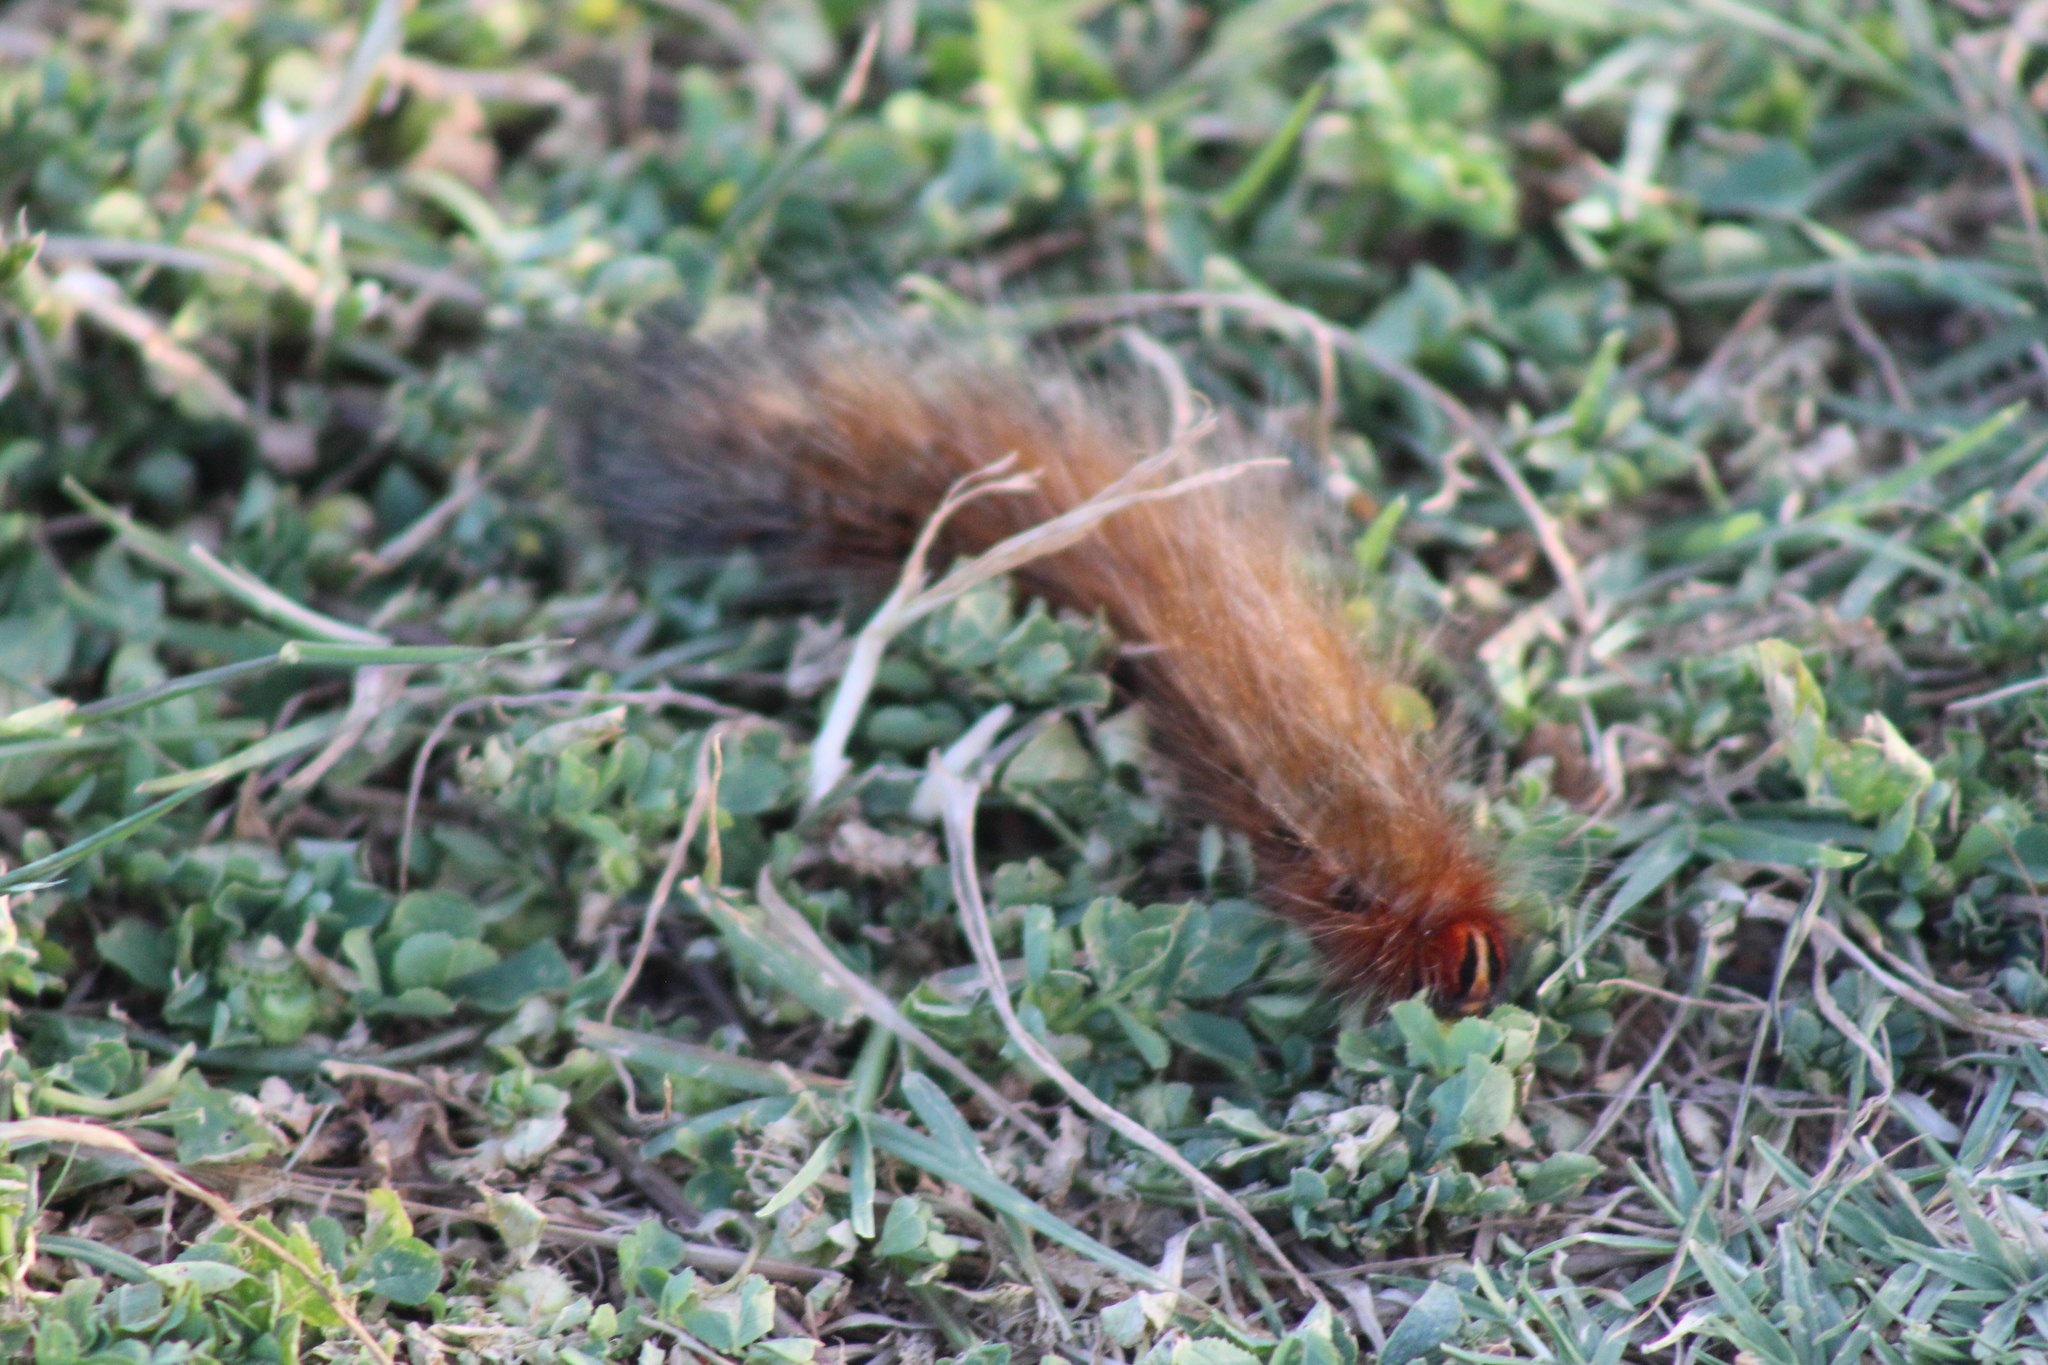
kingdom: Animalia
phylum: Arthropoda
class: Insecta
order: Lepidoptera
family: Lasiocampidae
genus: Mesocelis
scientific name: Mesocelis monticola
